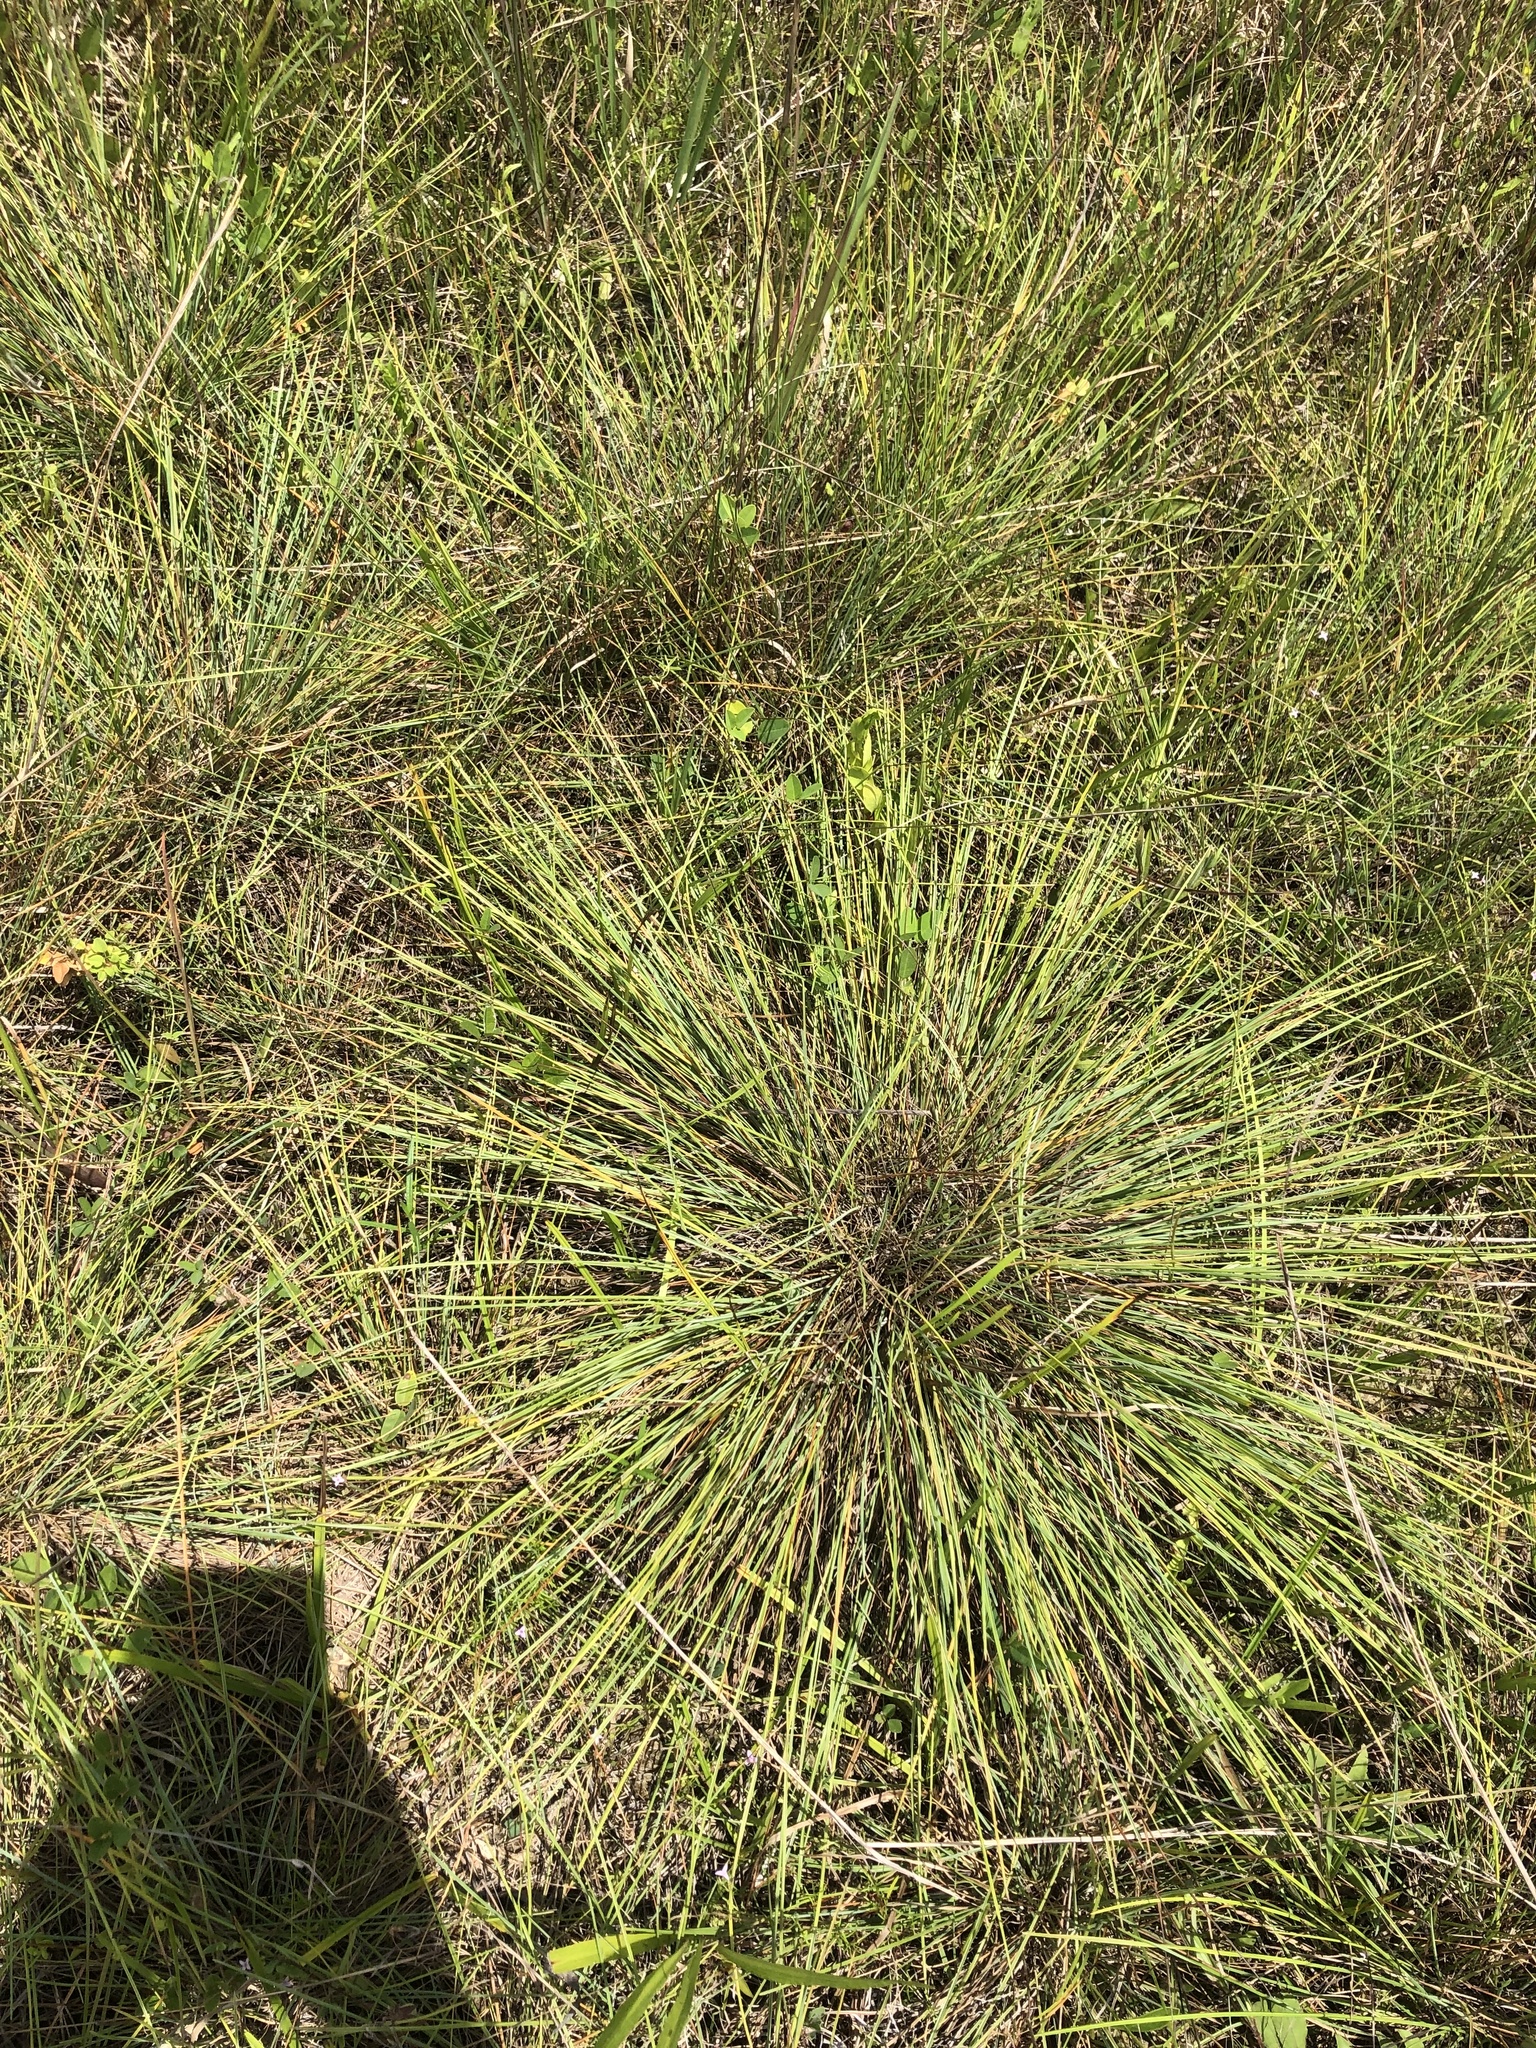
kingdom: Plantae
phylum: Tracheophyta
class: Liliopsida
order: Poales
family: Poaceae
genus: Sporobolus
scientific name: Sporobolus junceus
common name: Lizard grass
